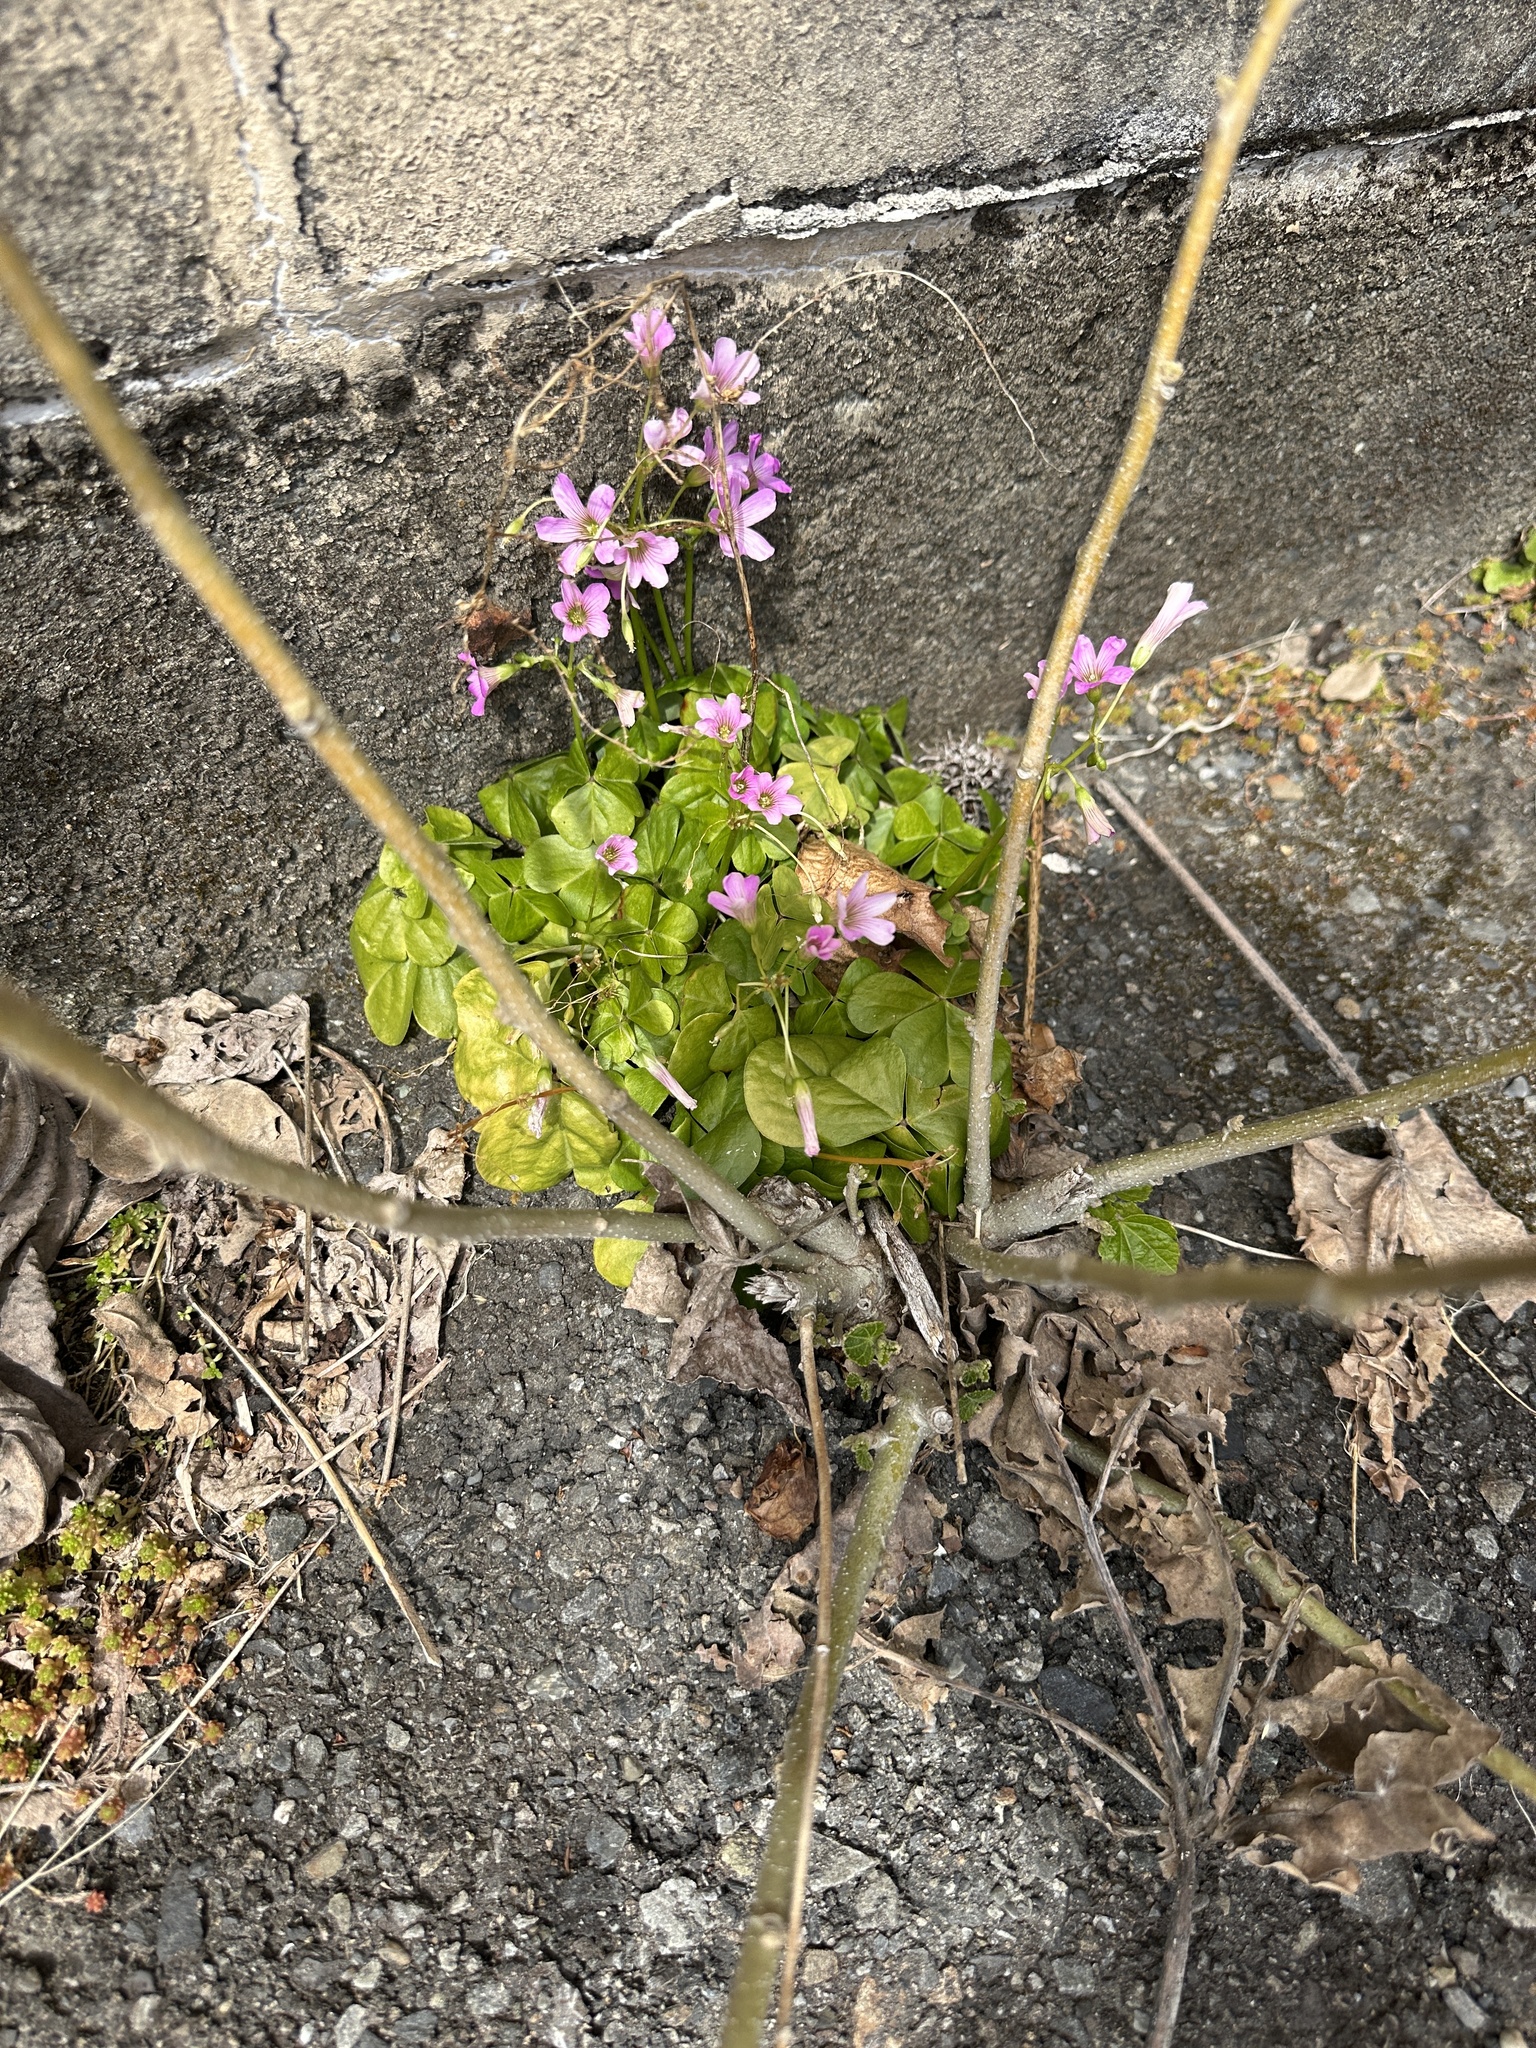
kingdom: Plantae
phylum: Tracheophyta
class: Magnoliopsida
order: Oxalidales
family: Oxalidaceae
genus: Oxalis
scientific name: Oxalis debilis
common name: Large-flowered pink-sorrel
